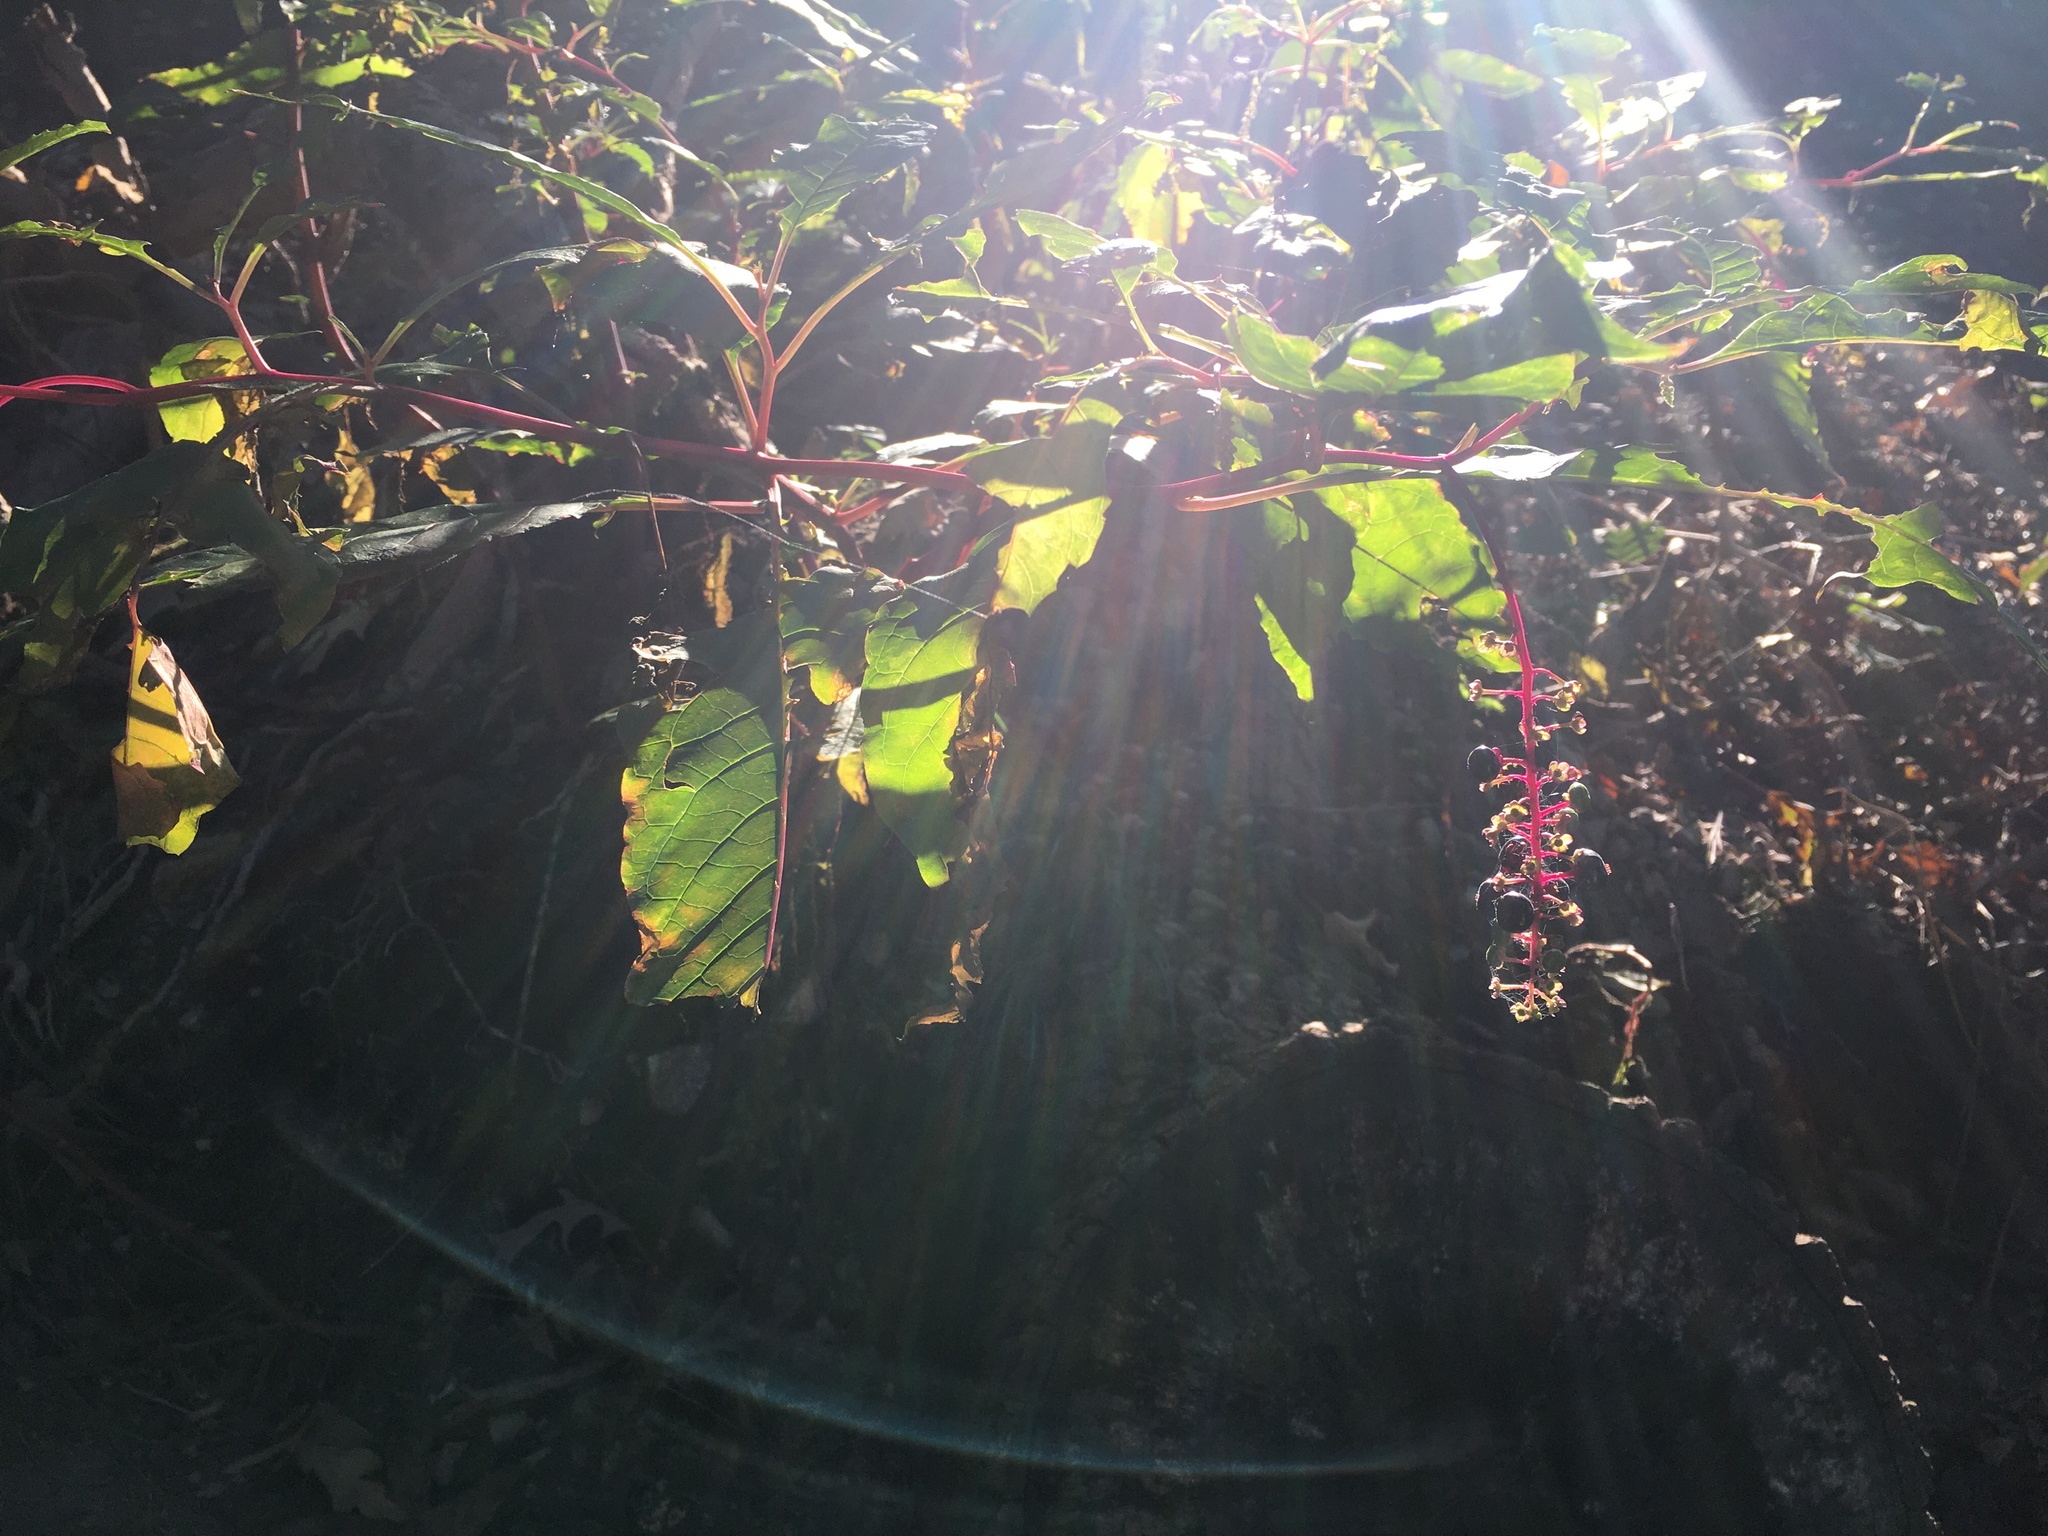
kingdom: Plantae
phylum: Tracheophyta
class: Magnoliopsida
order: Caryophyllales
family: Phytolaccaceae
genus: Phytolacca
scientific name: Phytolacca americana
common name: American pokeweed
